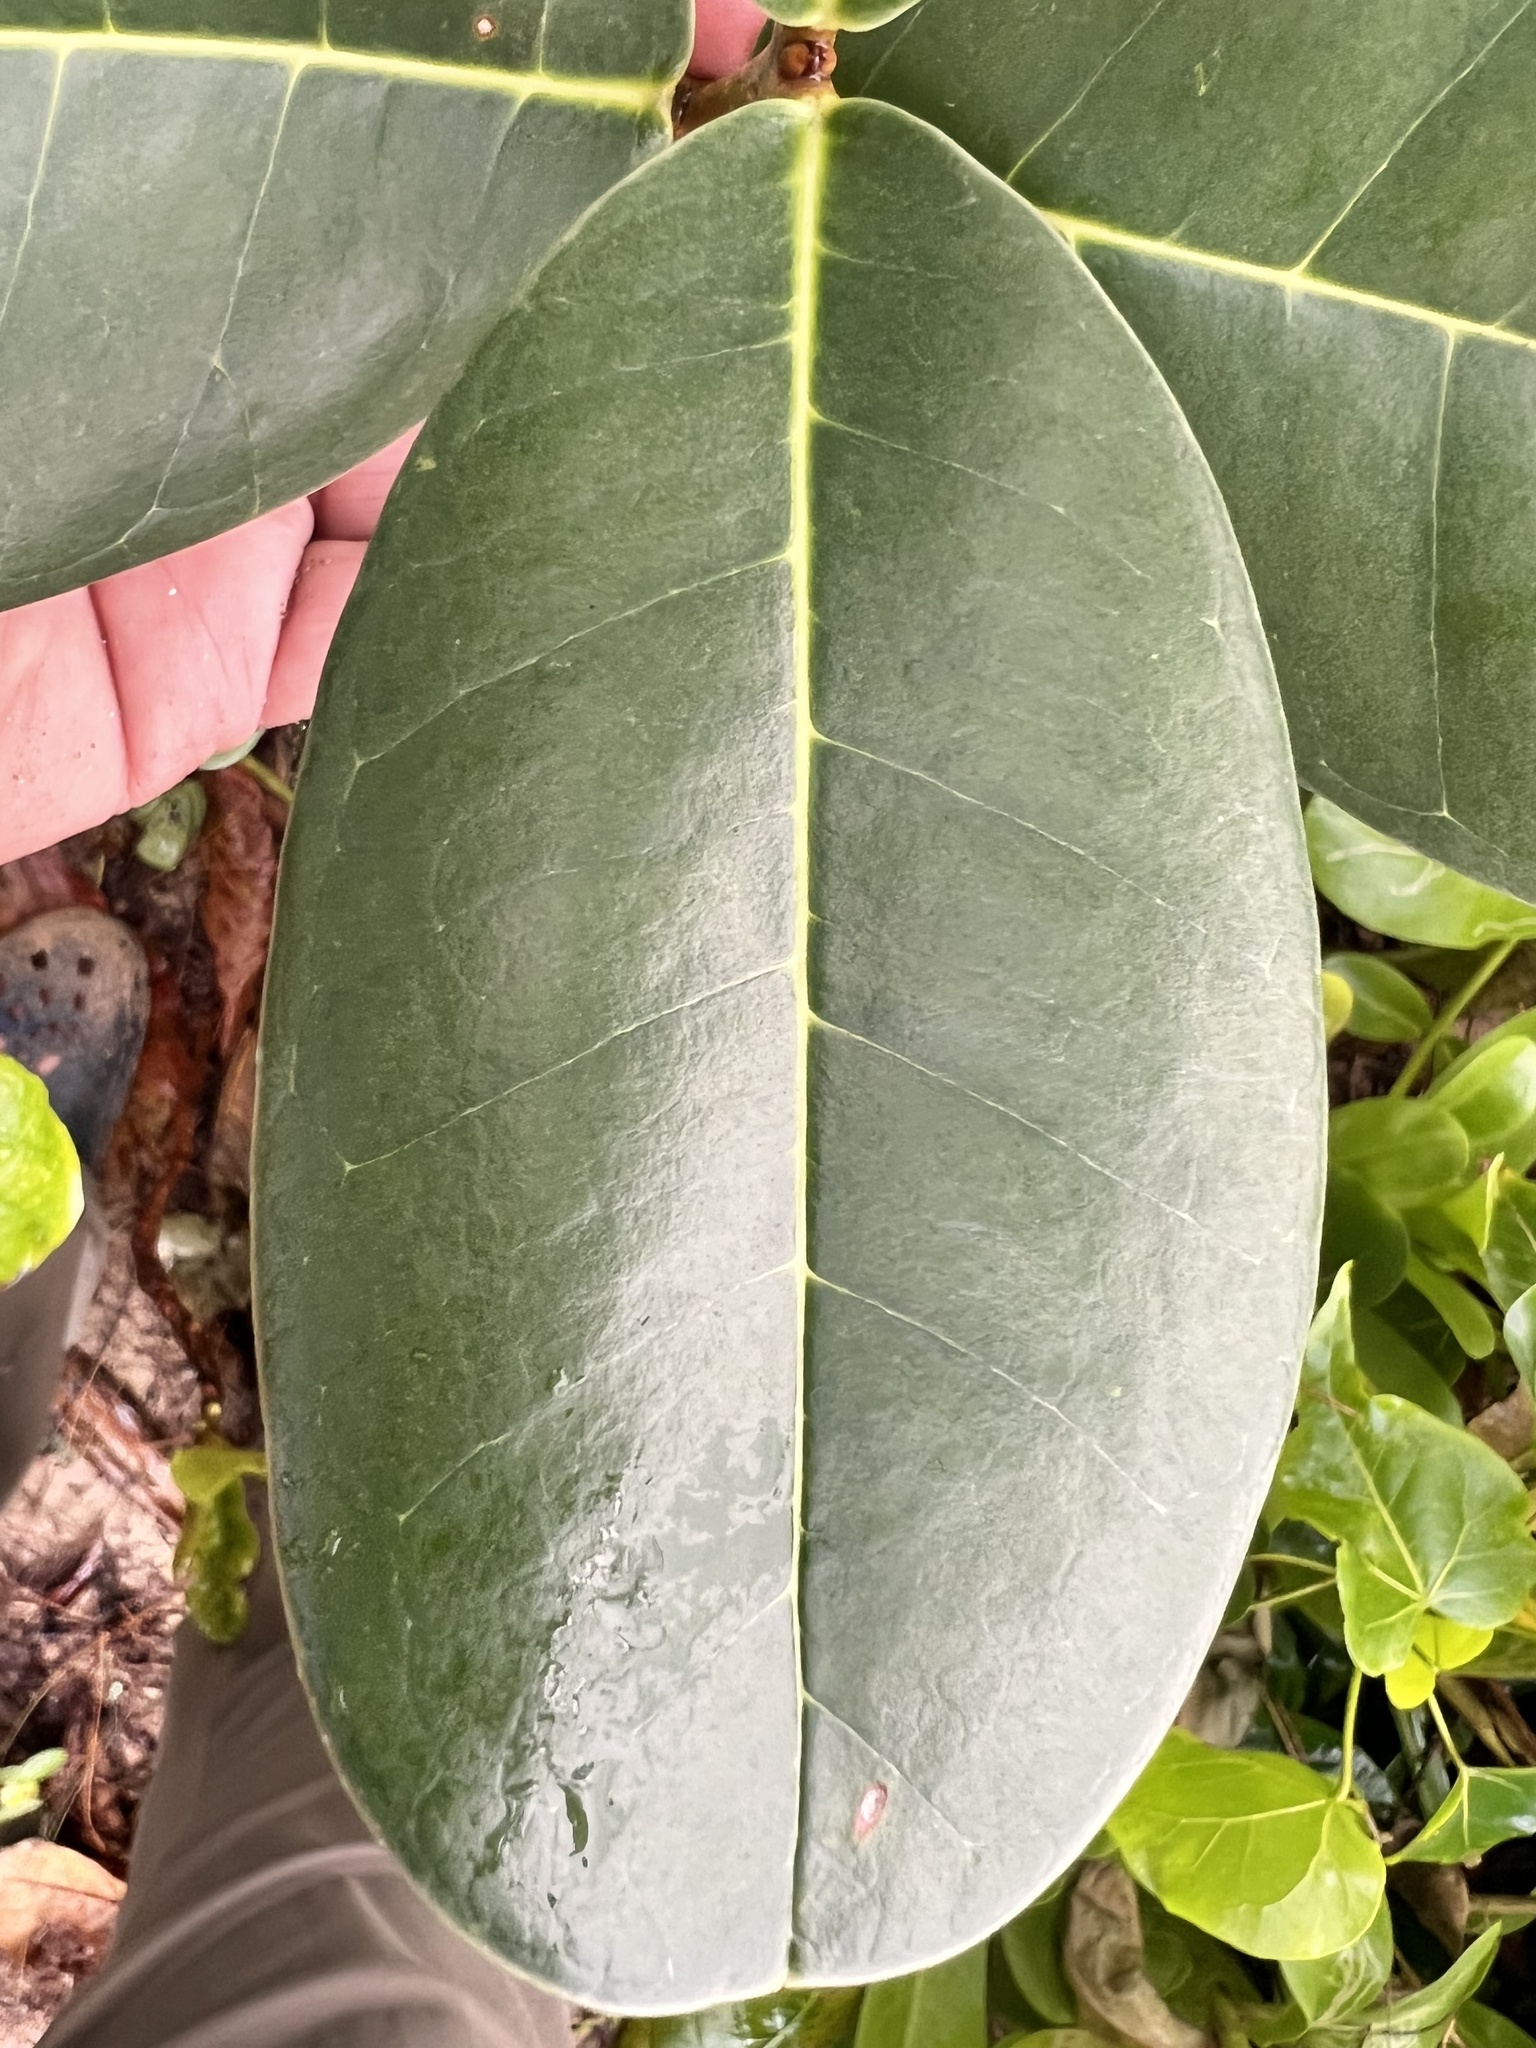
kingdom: Plantae
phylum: Tracheophyta
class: Magnoliopsida
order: Lamiales
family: Oleaceae
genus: Noronhia
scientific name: Noronhia emarginata
